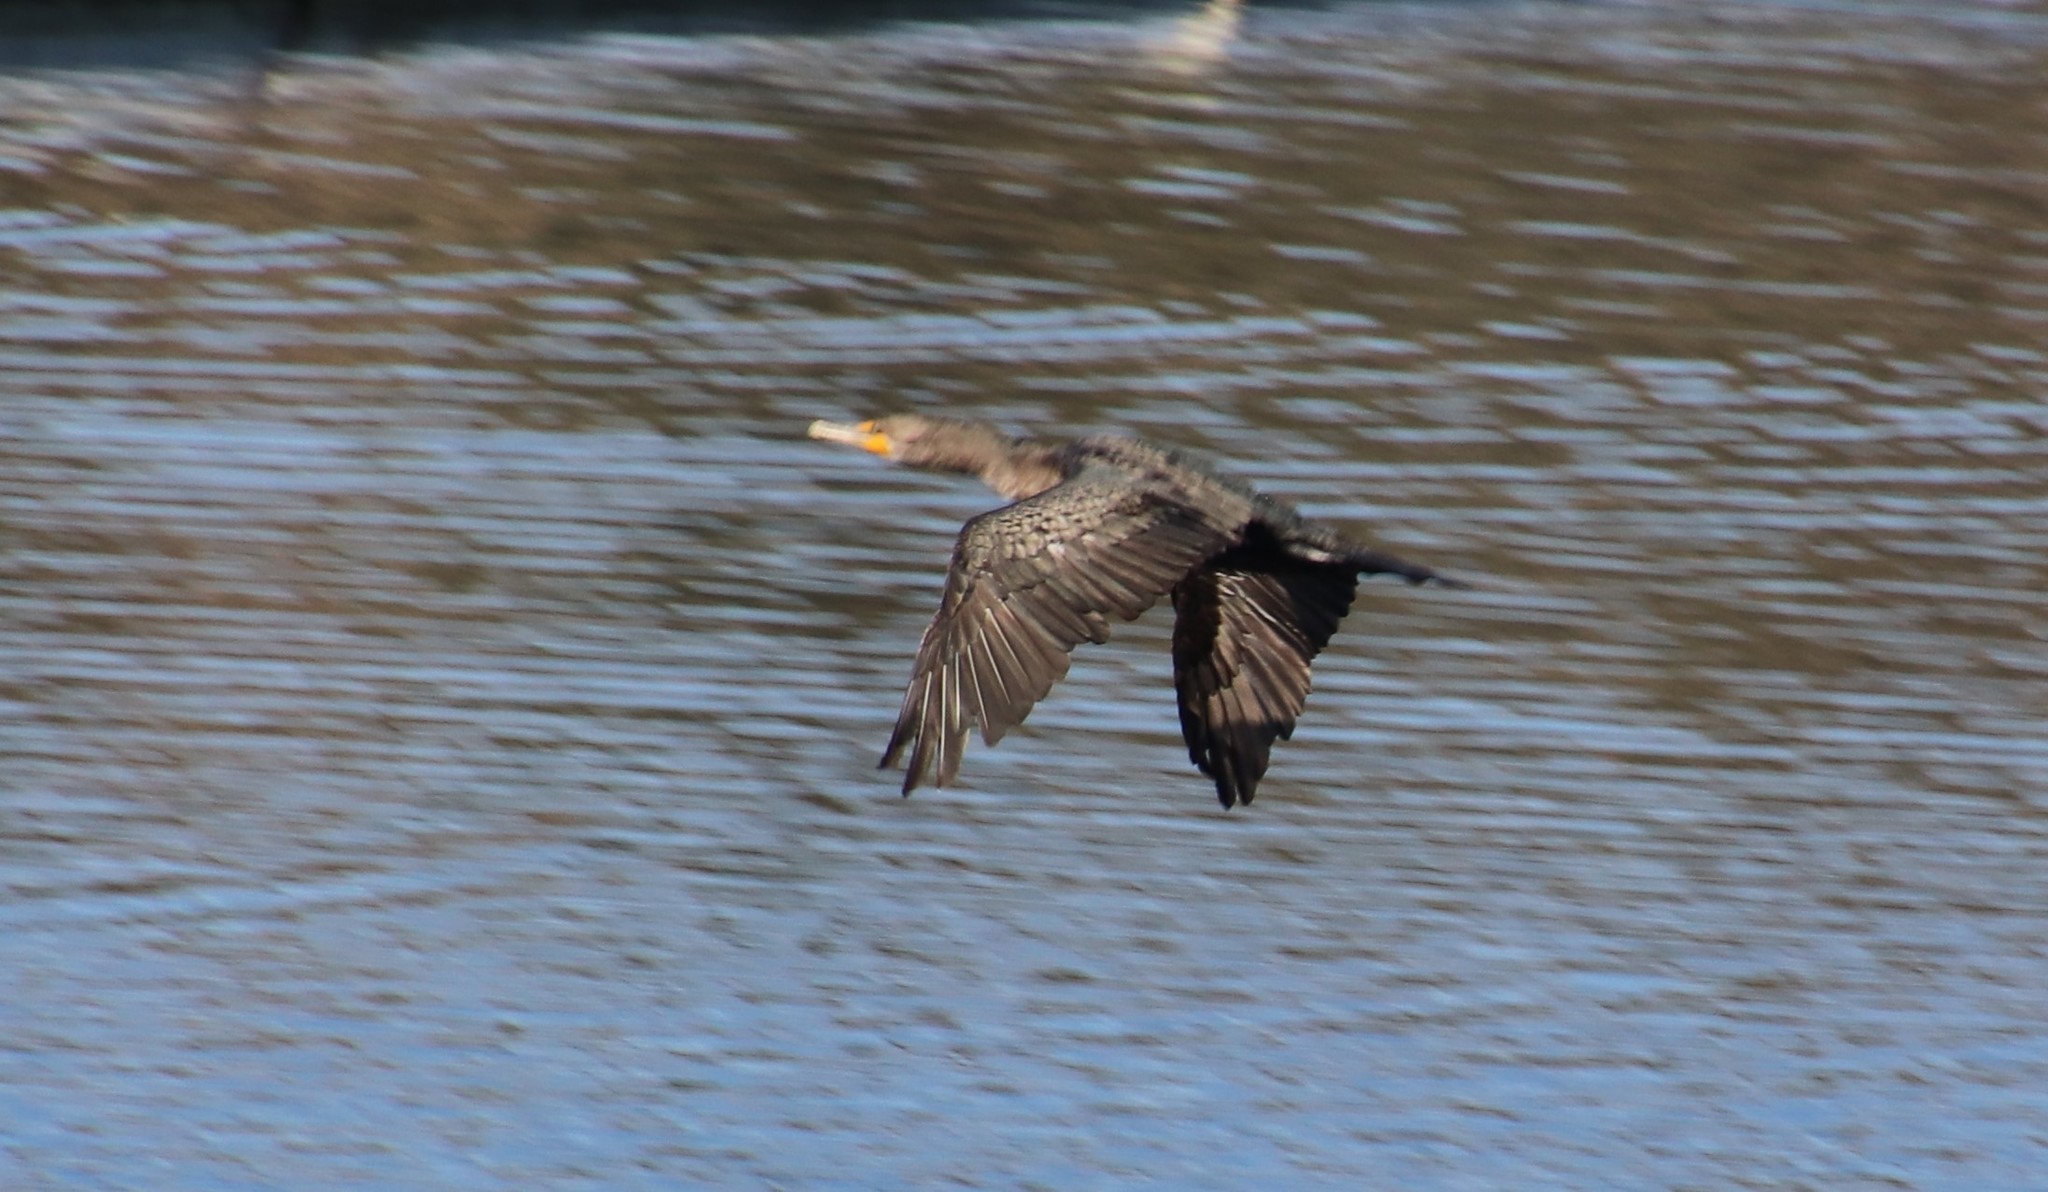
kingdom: Animalia
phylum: Chordata
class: Aves
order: Suliformes
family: Phalacrocoracidae
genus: Phalacrocorax
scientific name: Phalacrocorax auritus
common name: Double-crested cormorant
